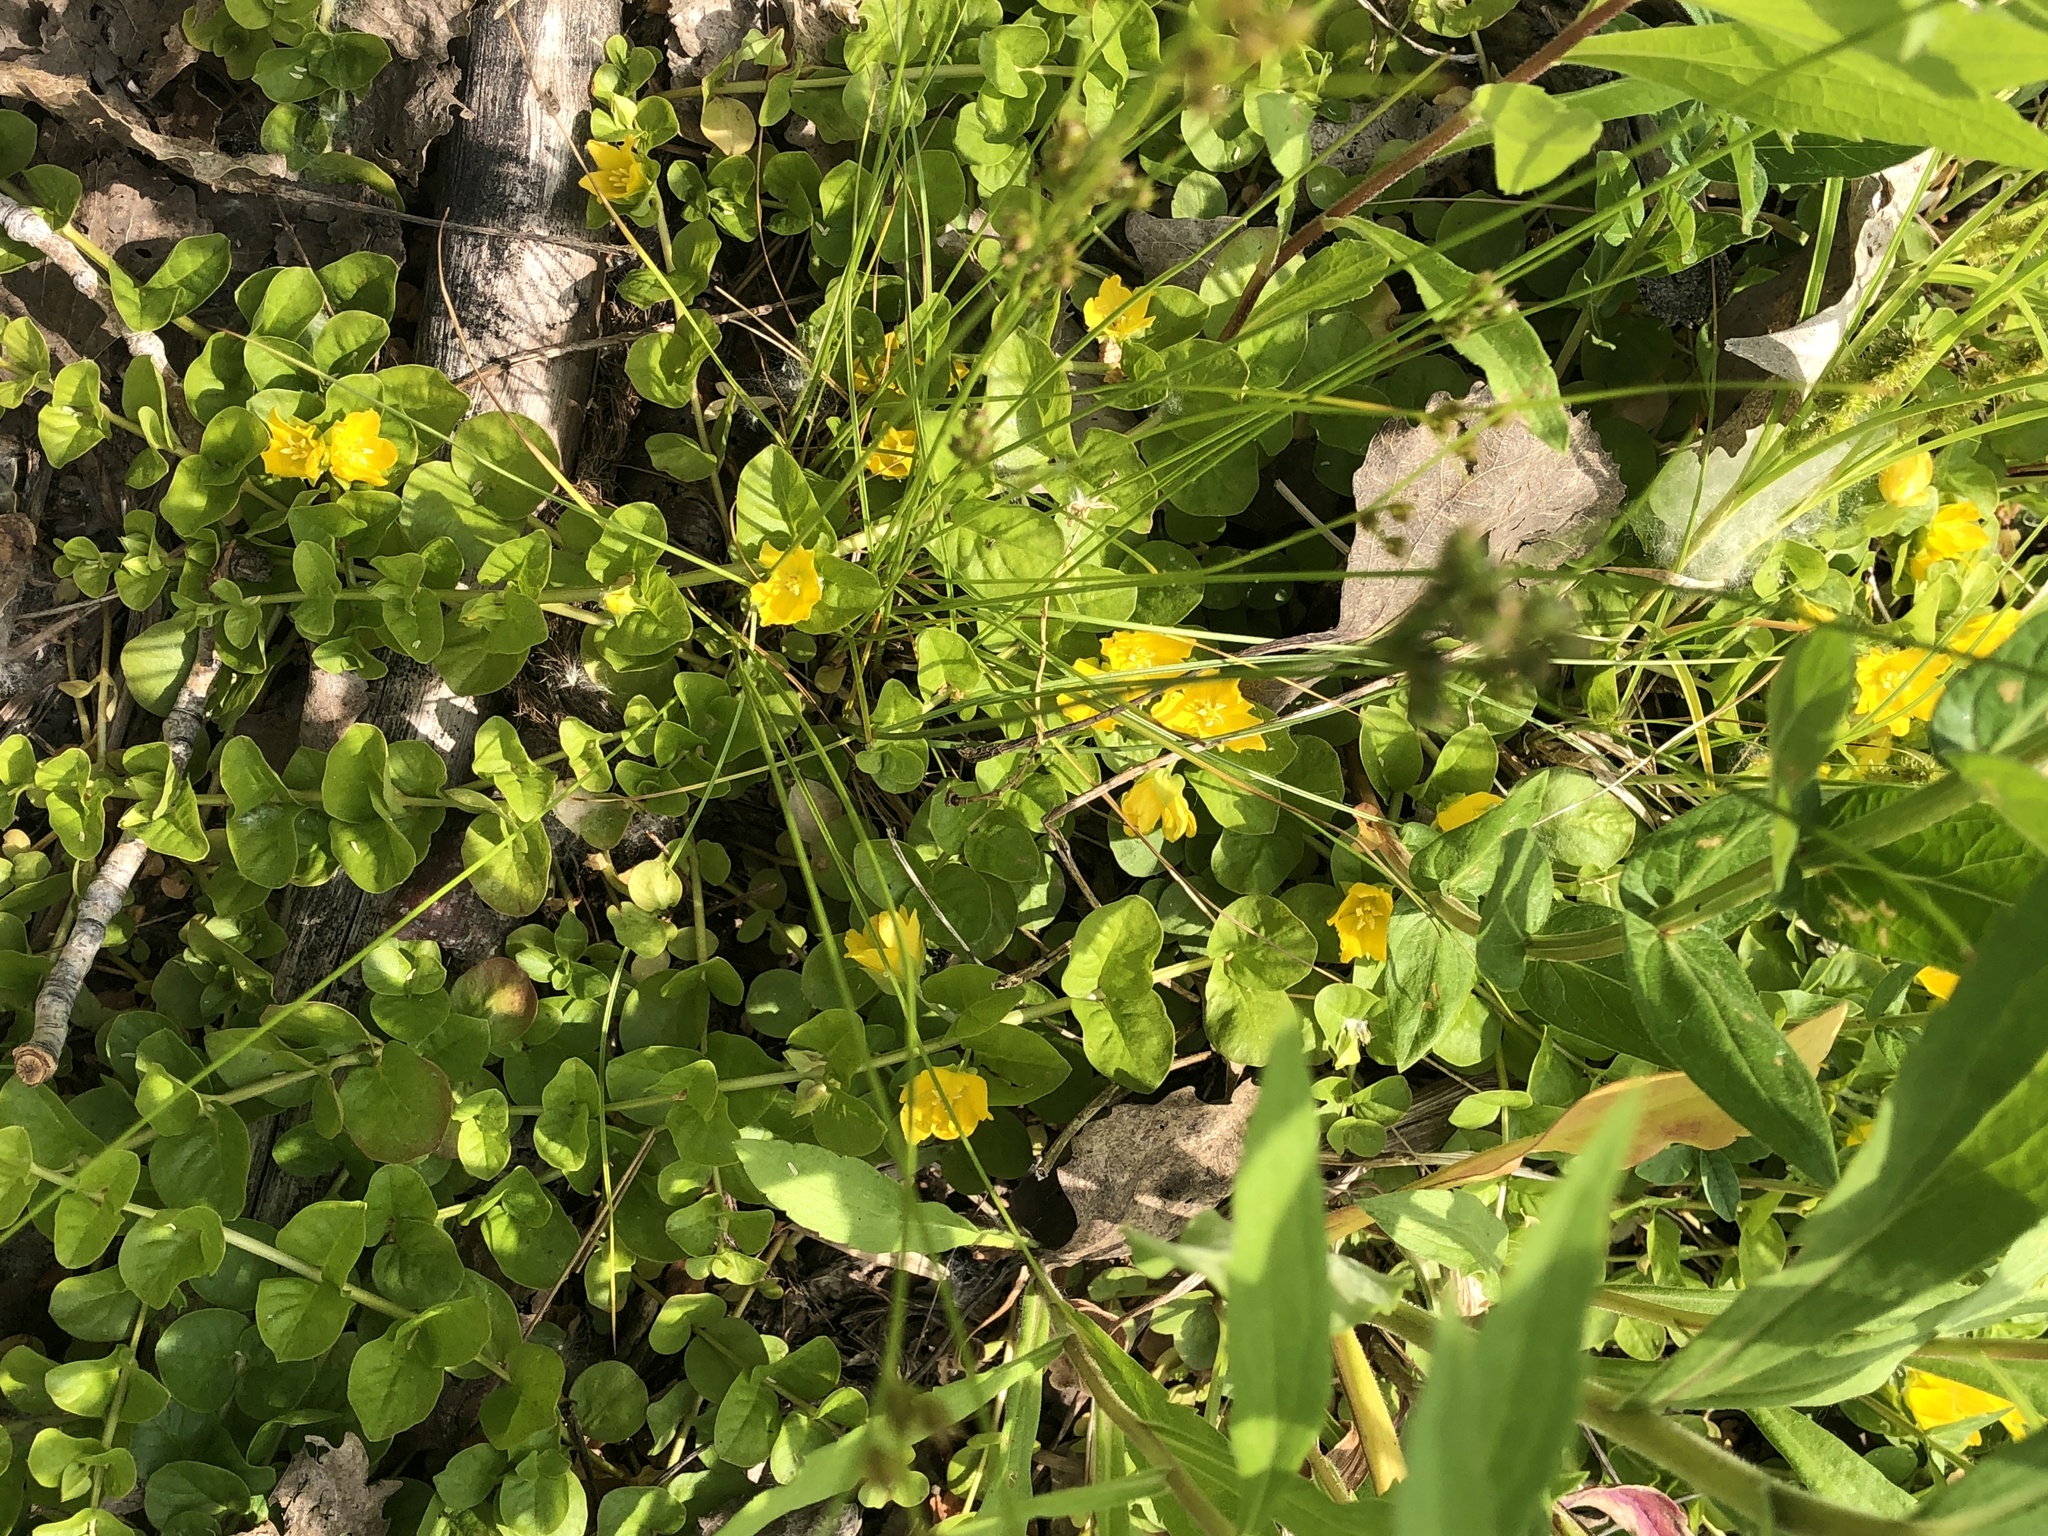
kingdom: Plantae
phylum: Tracheophyta
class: Magnoliopsida
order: Ericales
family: Primulaceae
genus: Lysimachia
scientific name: Lysimachia nummularia
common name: Moneywort
